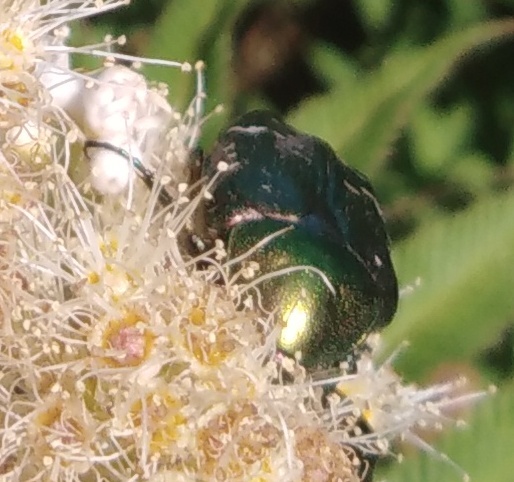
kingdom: Animalia
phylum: Arthropoda
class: Insecta
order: Coleoptera
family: Scarabaeidae
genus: Cetonia
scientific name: Cetonia aurata
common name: Rose chafer
